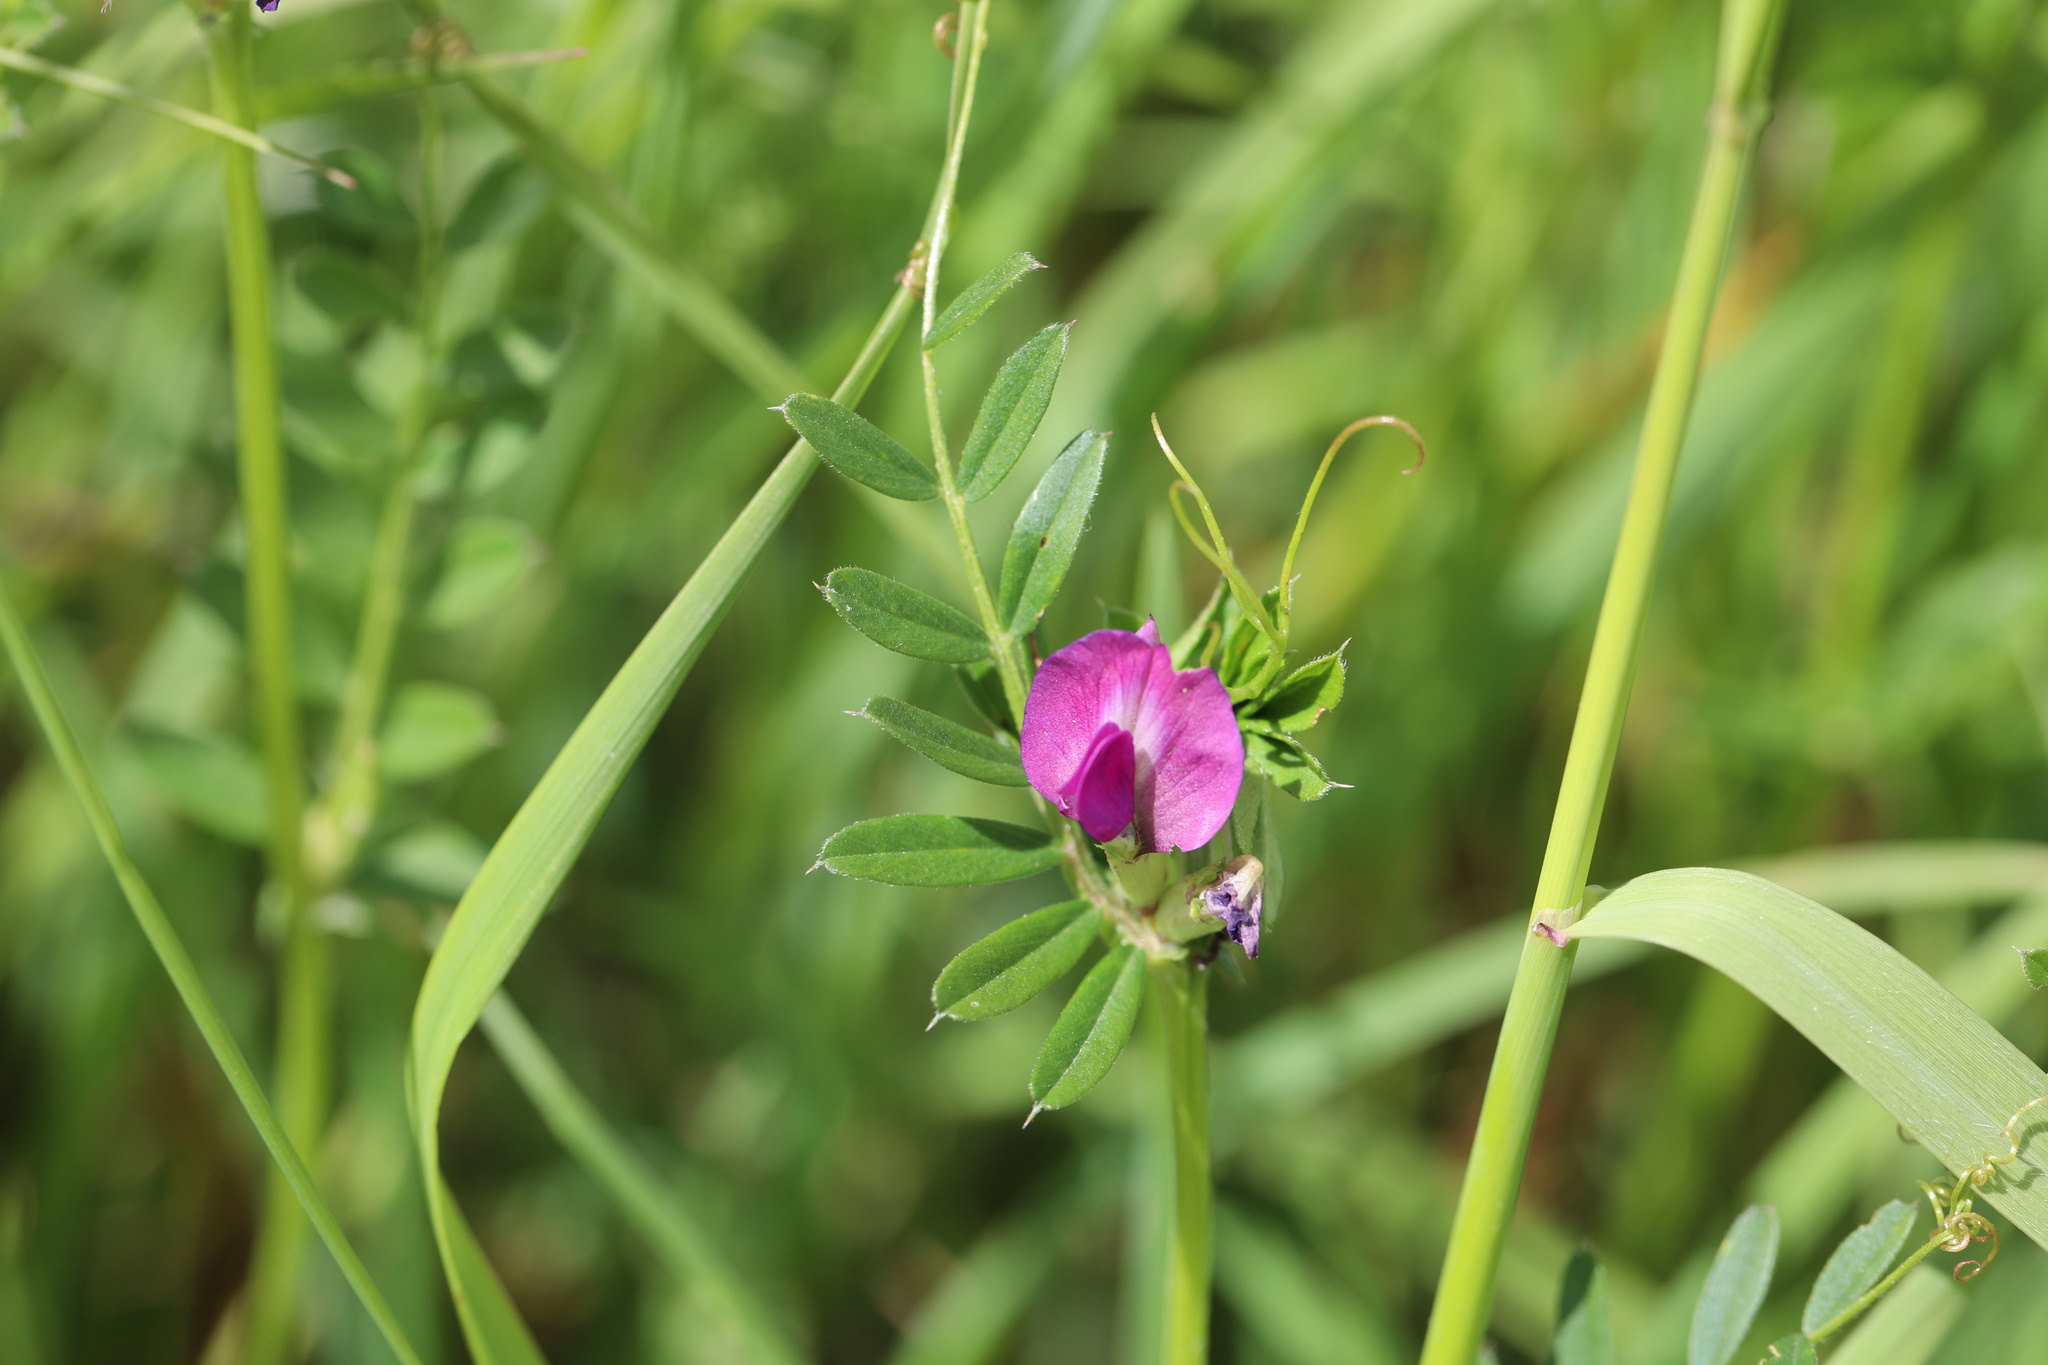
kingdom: Plantae
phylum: Tracheophyta
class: Magnoliopsida
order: Fabales
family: Fabaceae
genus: Vicia
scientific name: Vicia sativa
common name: Garden vetch
